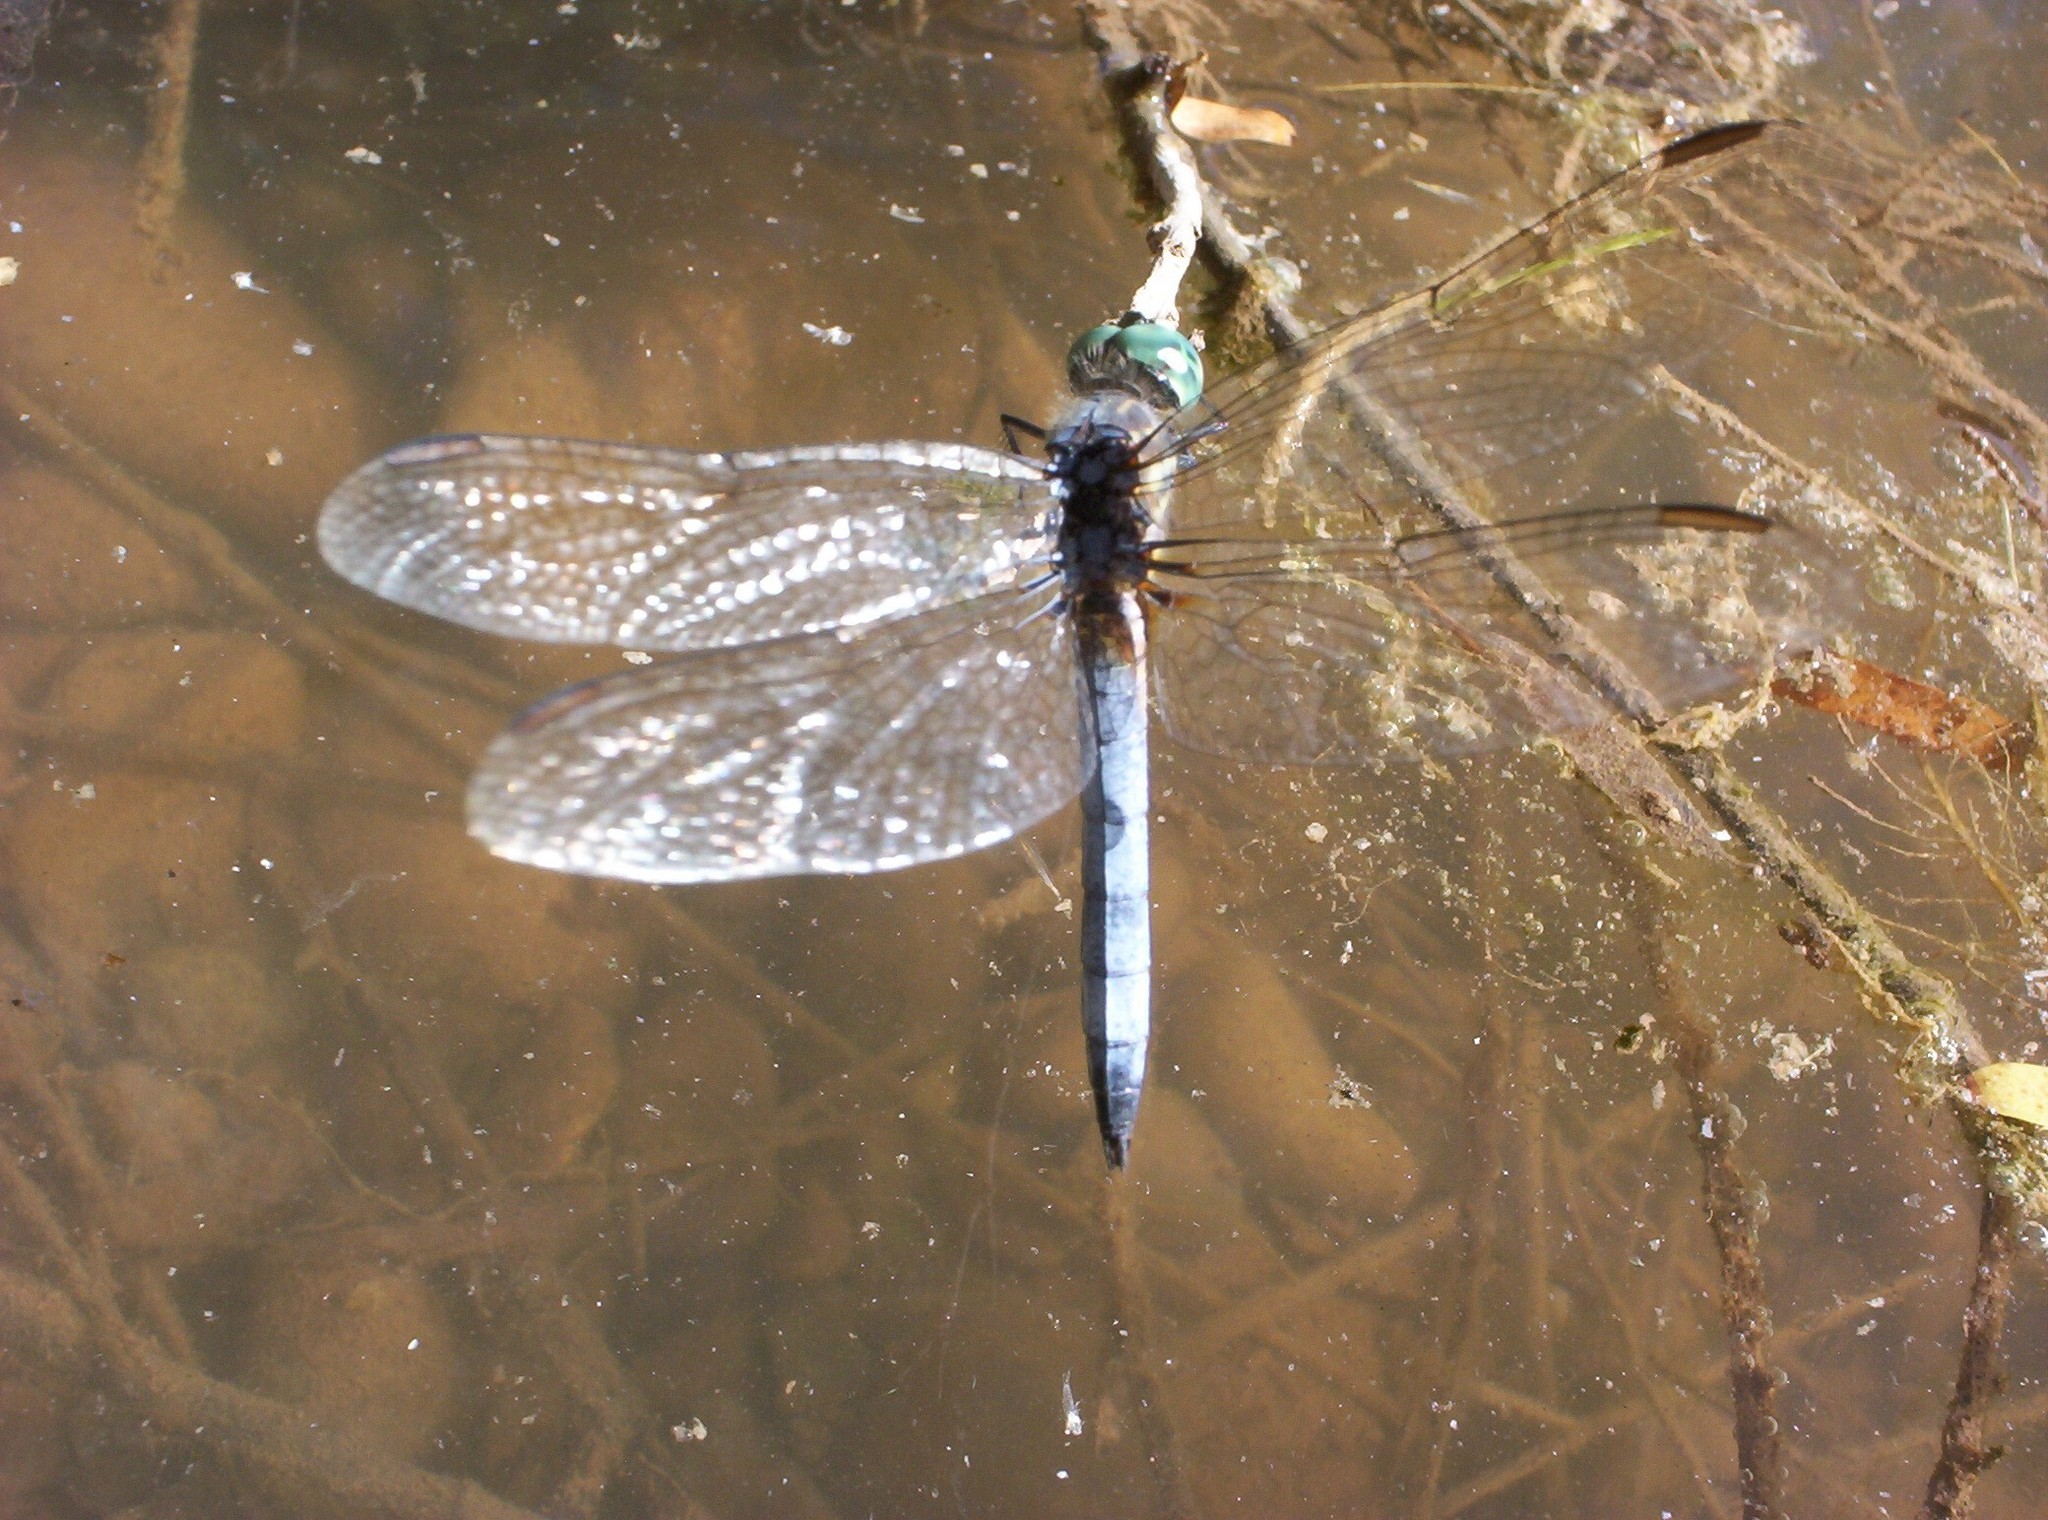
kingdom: Animalia
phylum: Arthropoda
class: Insecta
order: Odonata
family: Libellulidae
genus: Pachydiplax
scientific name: Pachydiplax longipennis
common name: Blue dasher
